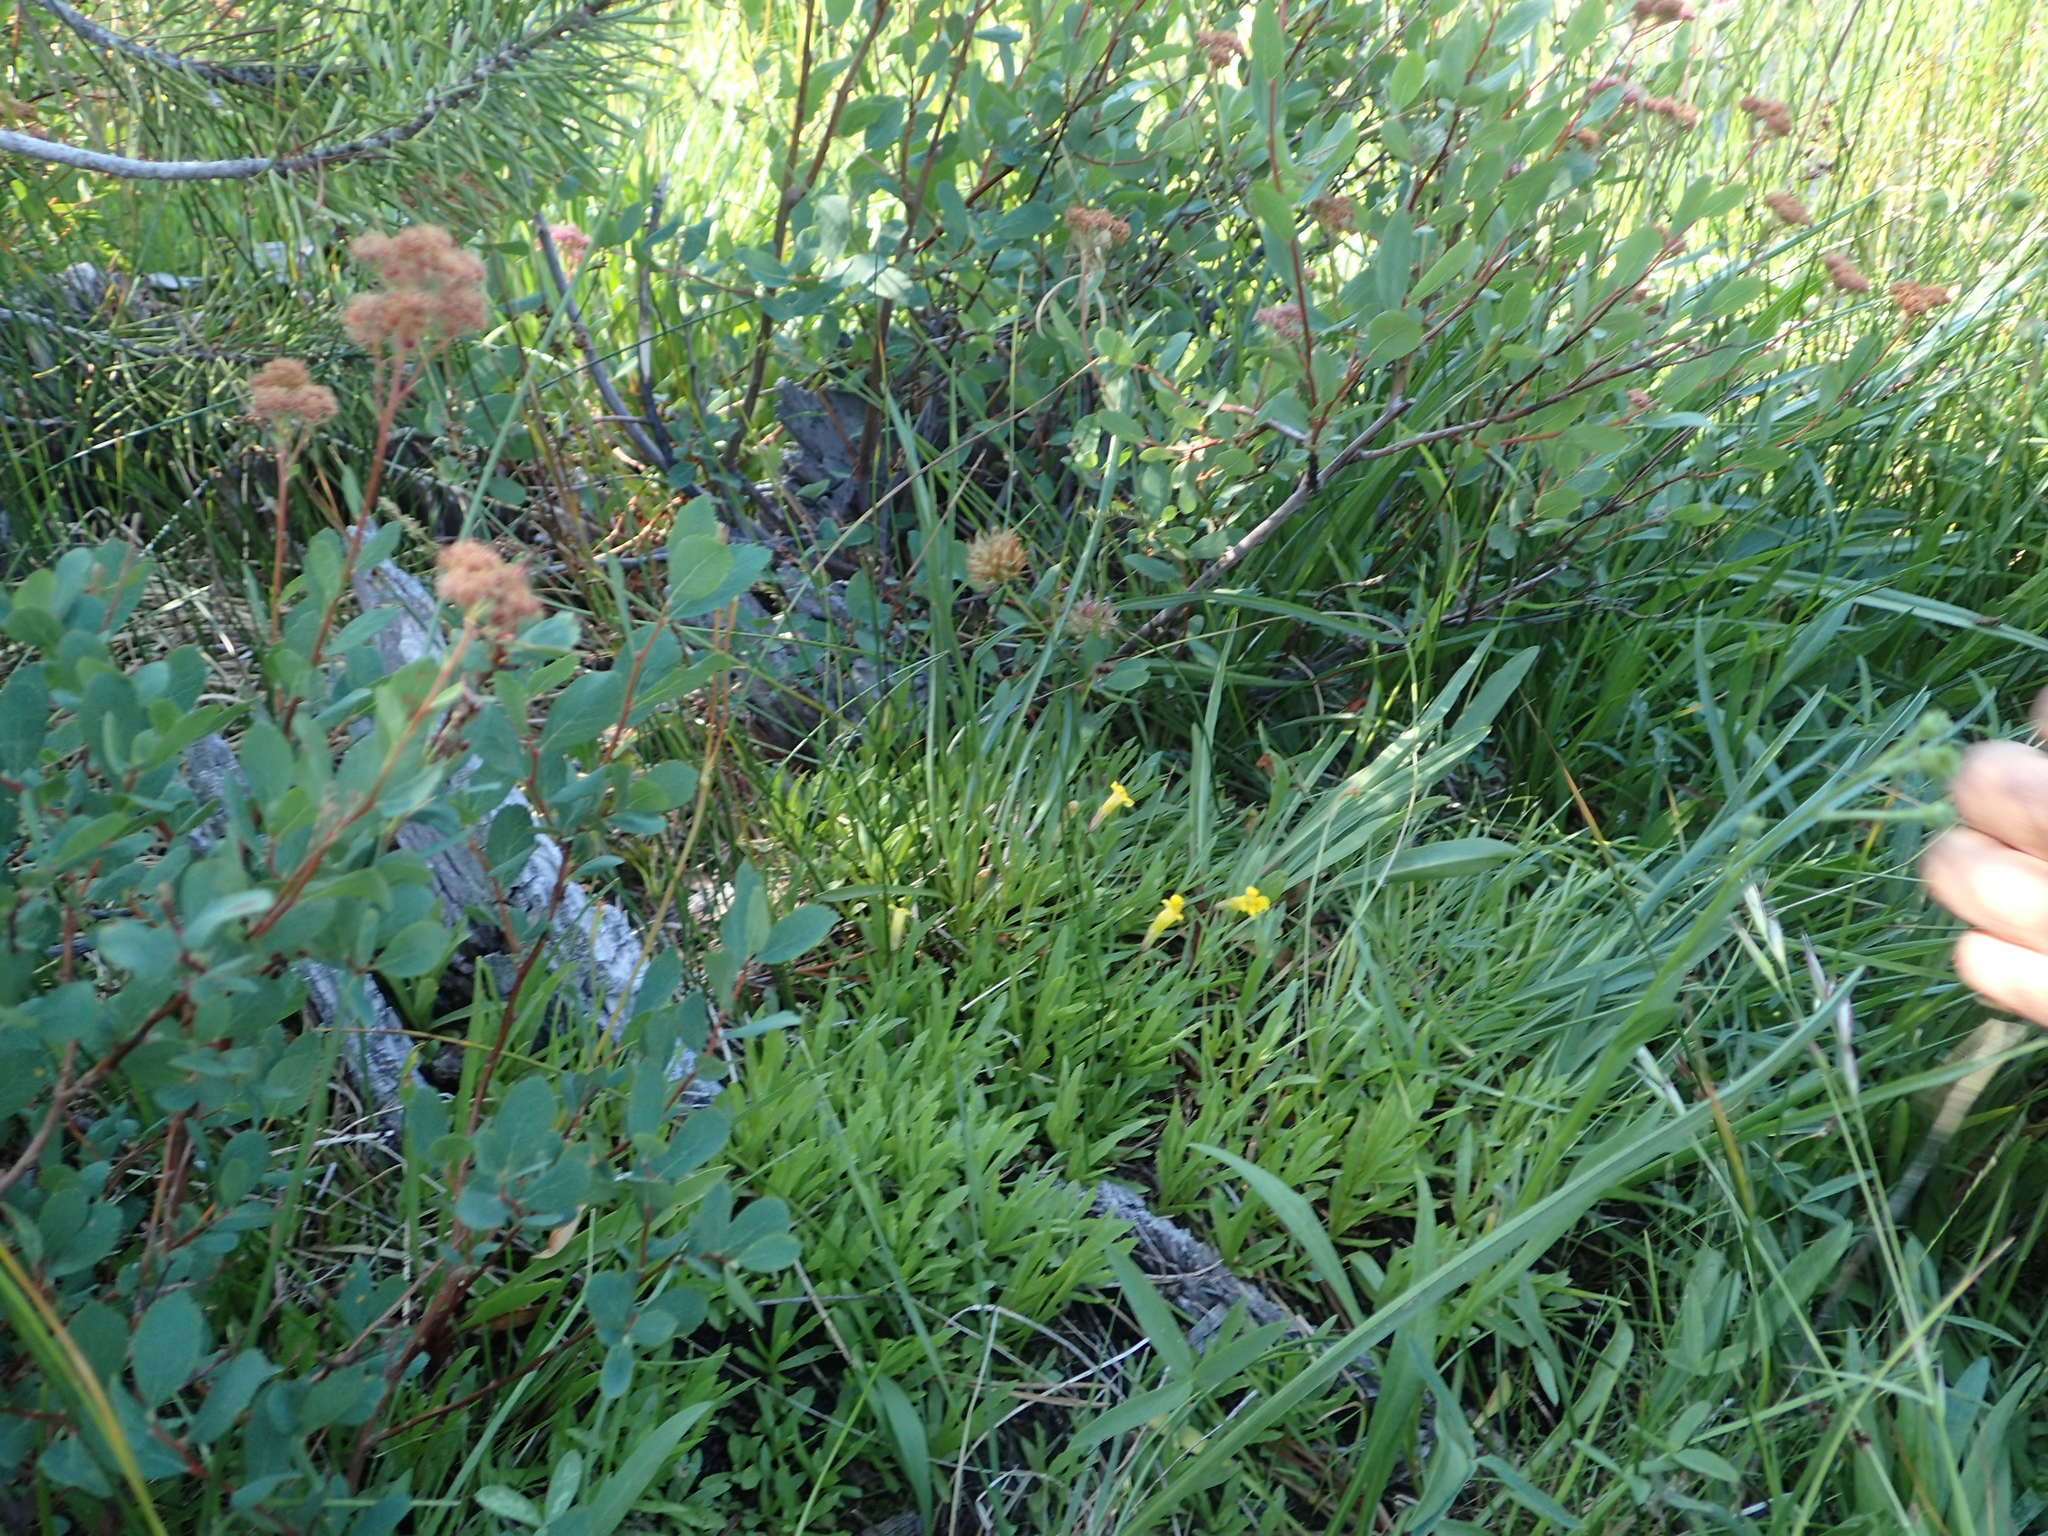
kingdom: Plantae
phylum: Tracheophyta
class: Magnoliopsida
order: Lamiales
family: Phrymaceae
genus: Erythranthe
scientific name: Erythranthe linearifolia
